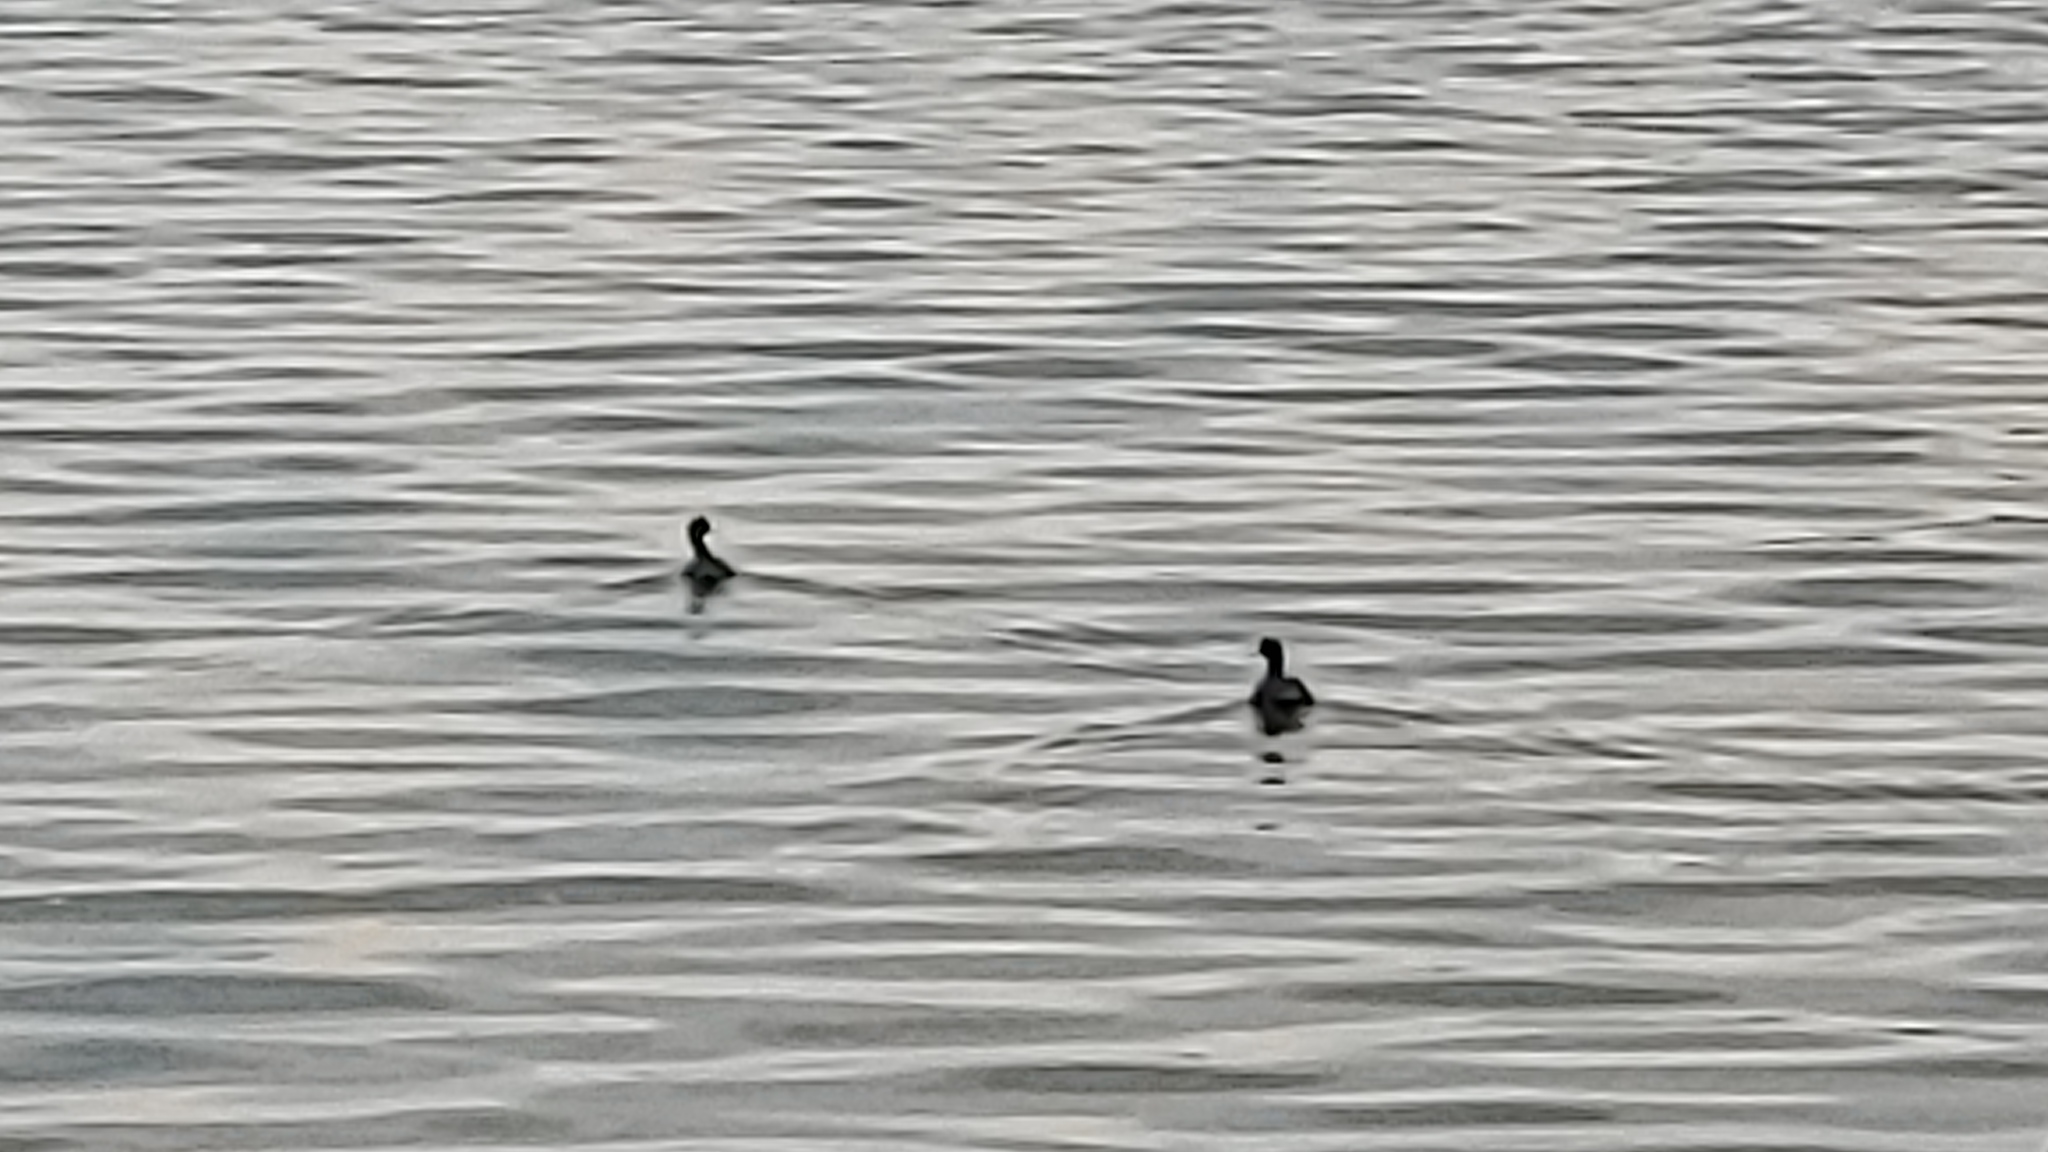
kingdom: Animalia
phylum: Chordata
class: Aves
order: Gruiformes
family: Rallidae
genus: Fulica
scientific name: Fulica americana
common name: American coot
